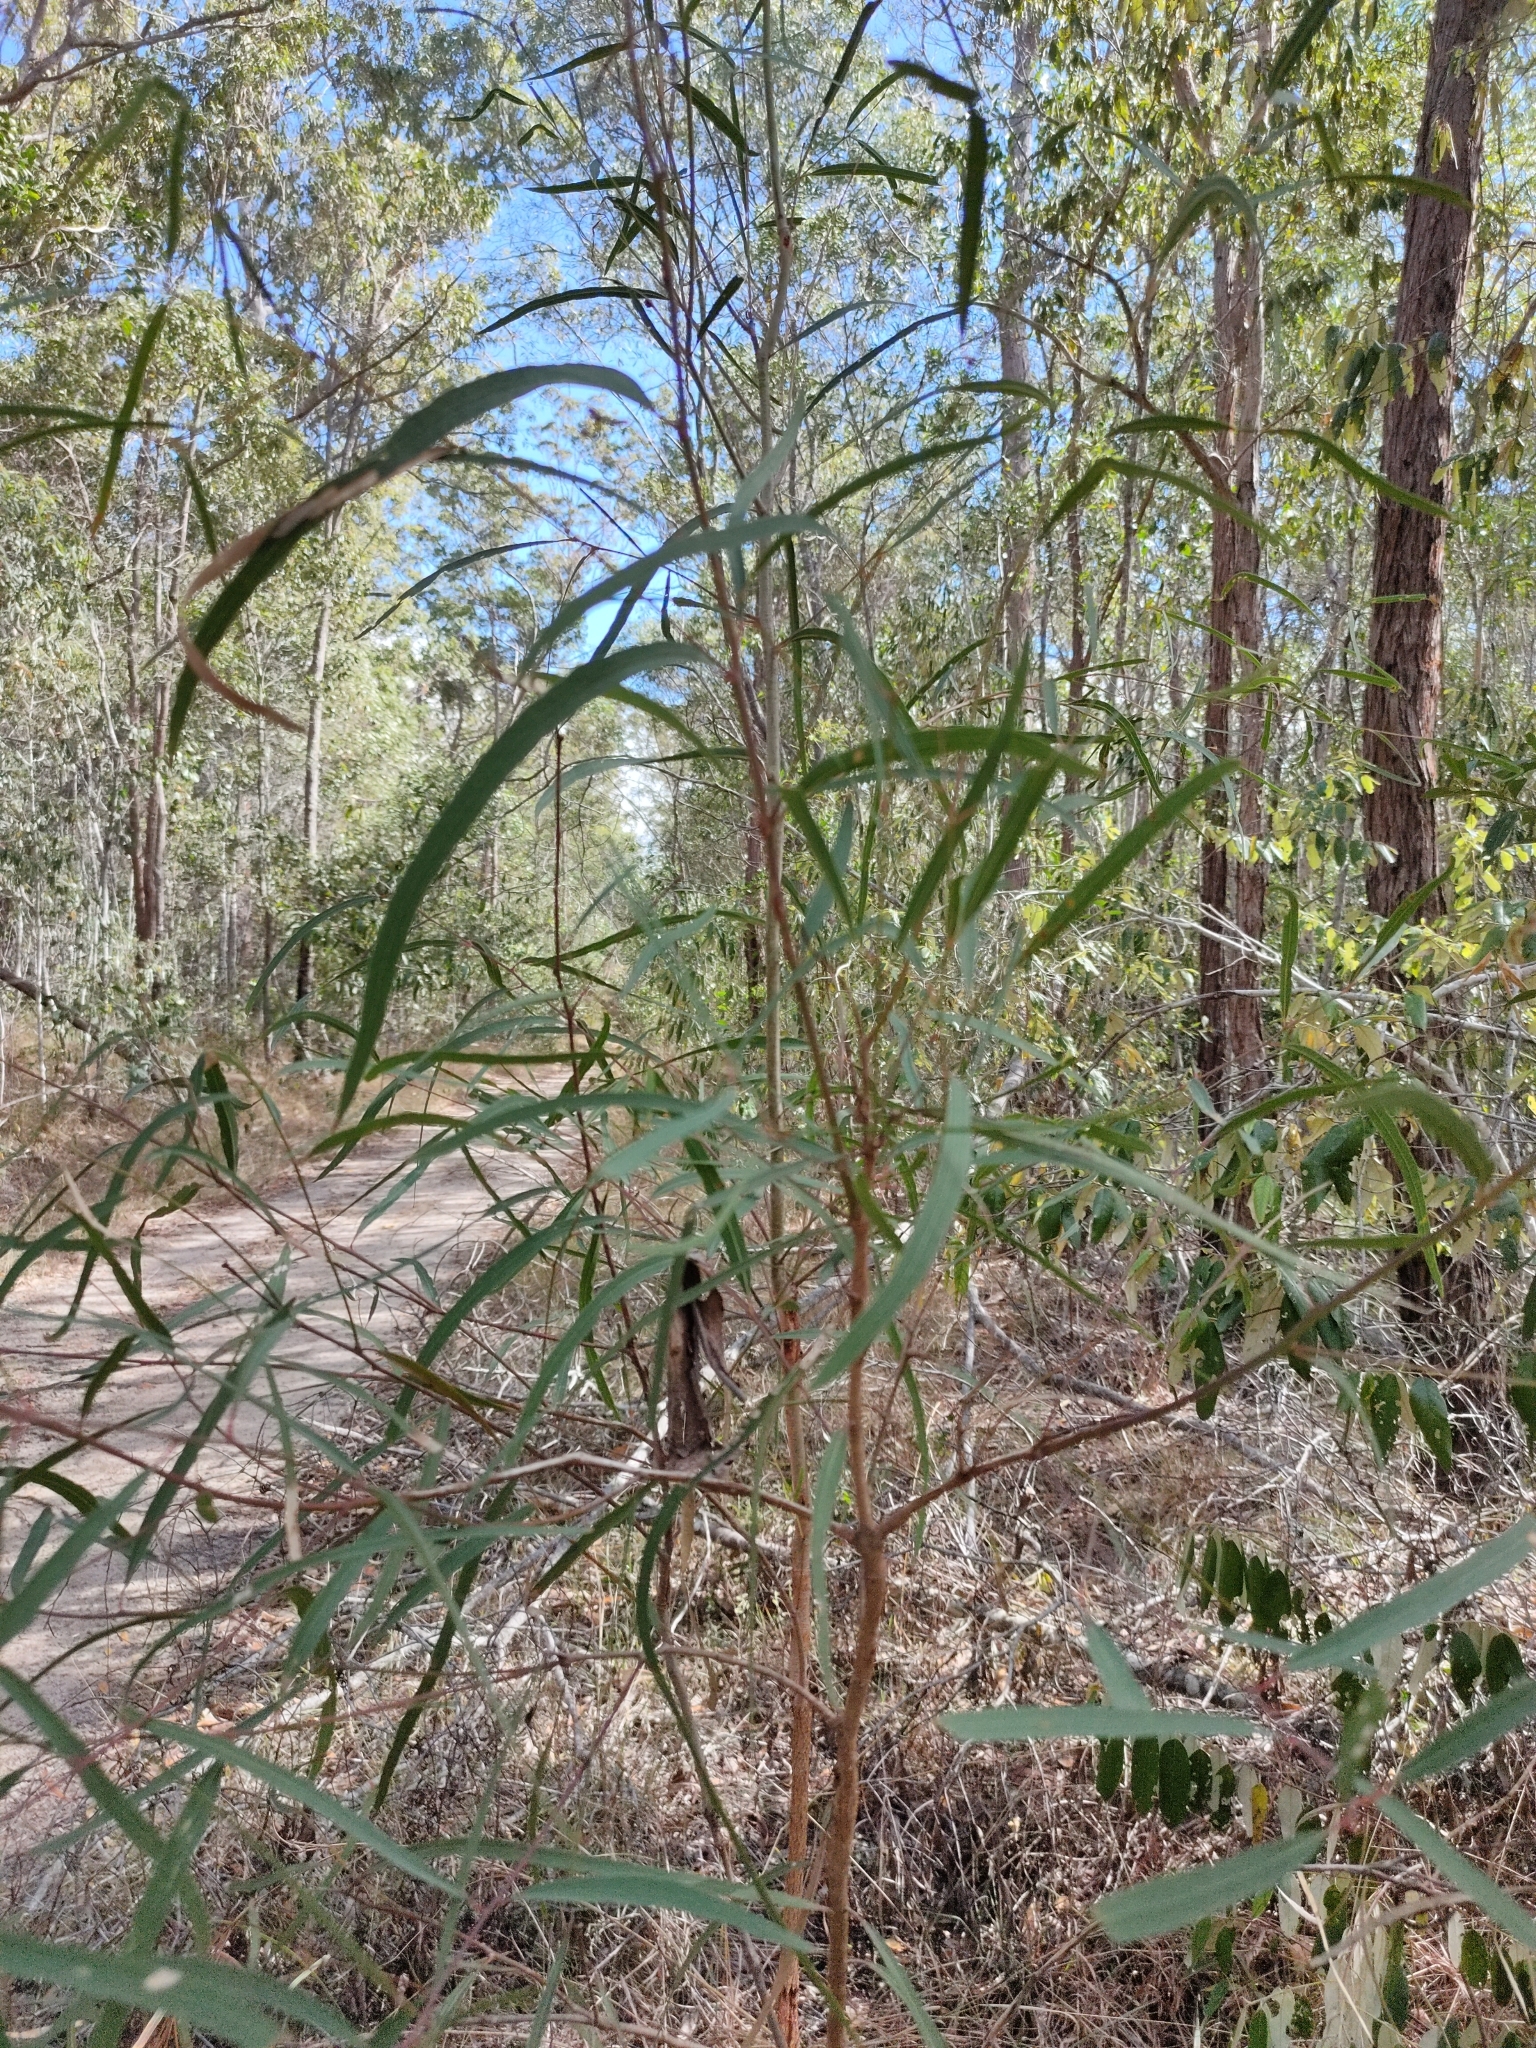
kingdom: Plantae
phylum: Tracheophyta
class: Magnoliopsida
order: Myrtales
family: Myrtaceae
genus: Eucalyptus
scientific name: Eucalyptus exserta
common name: Peppermint-bendo
